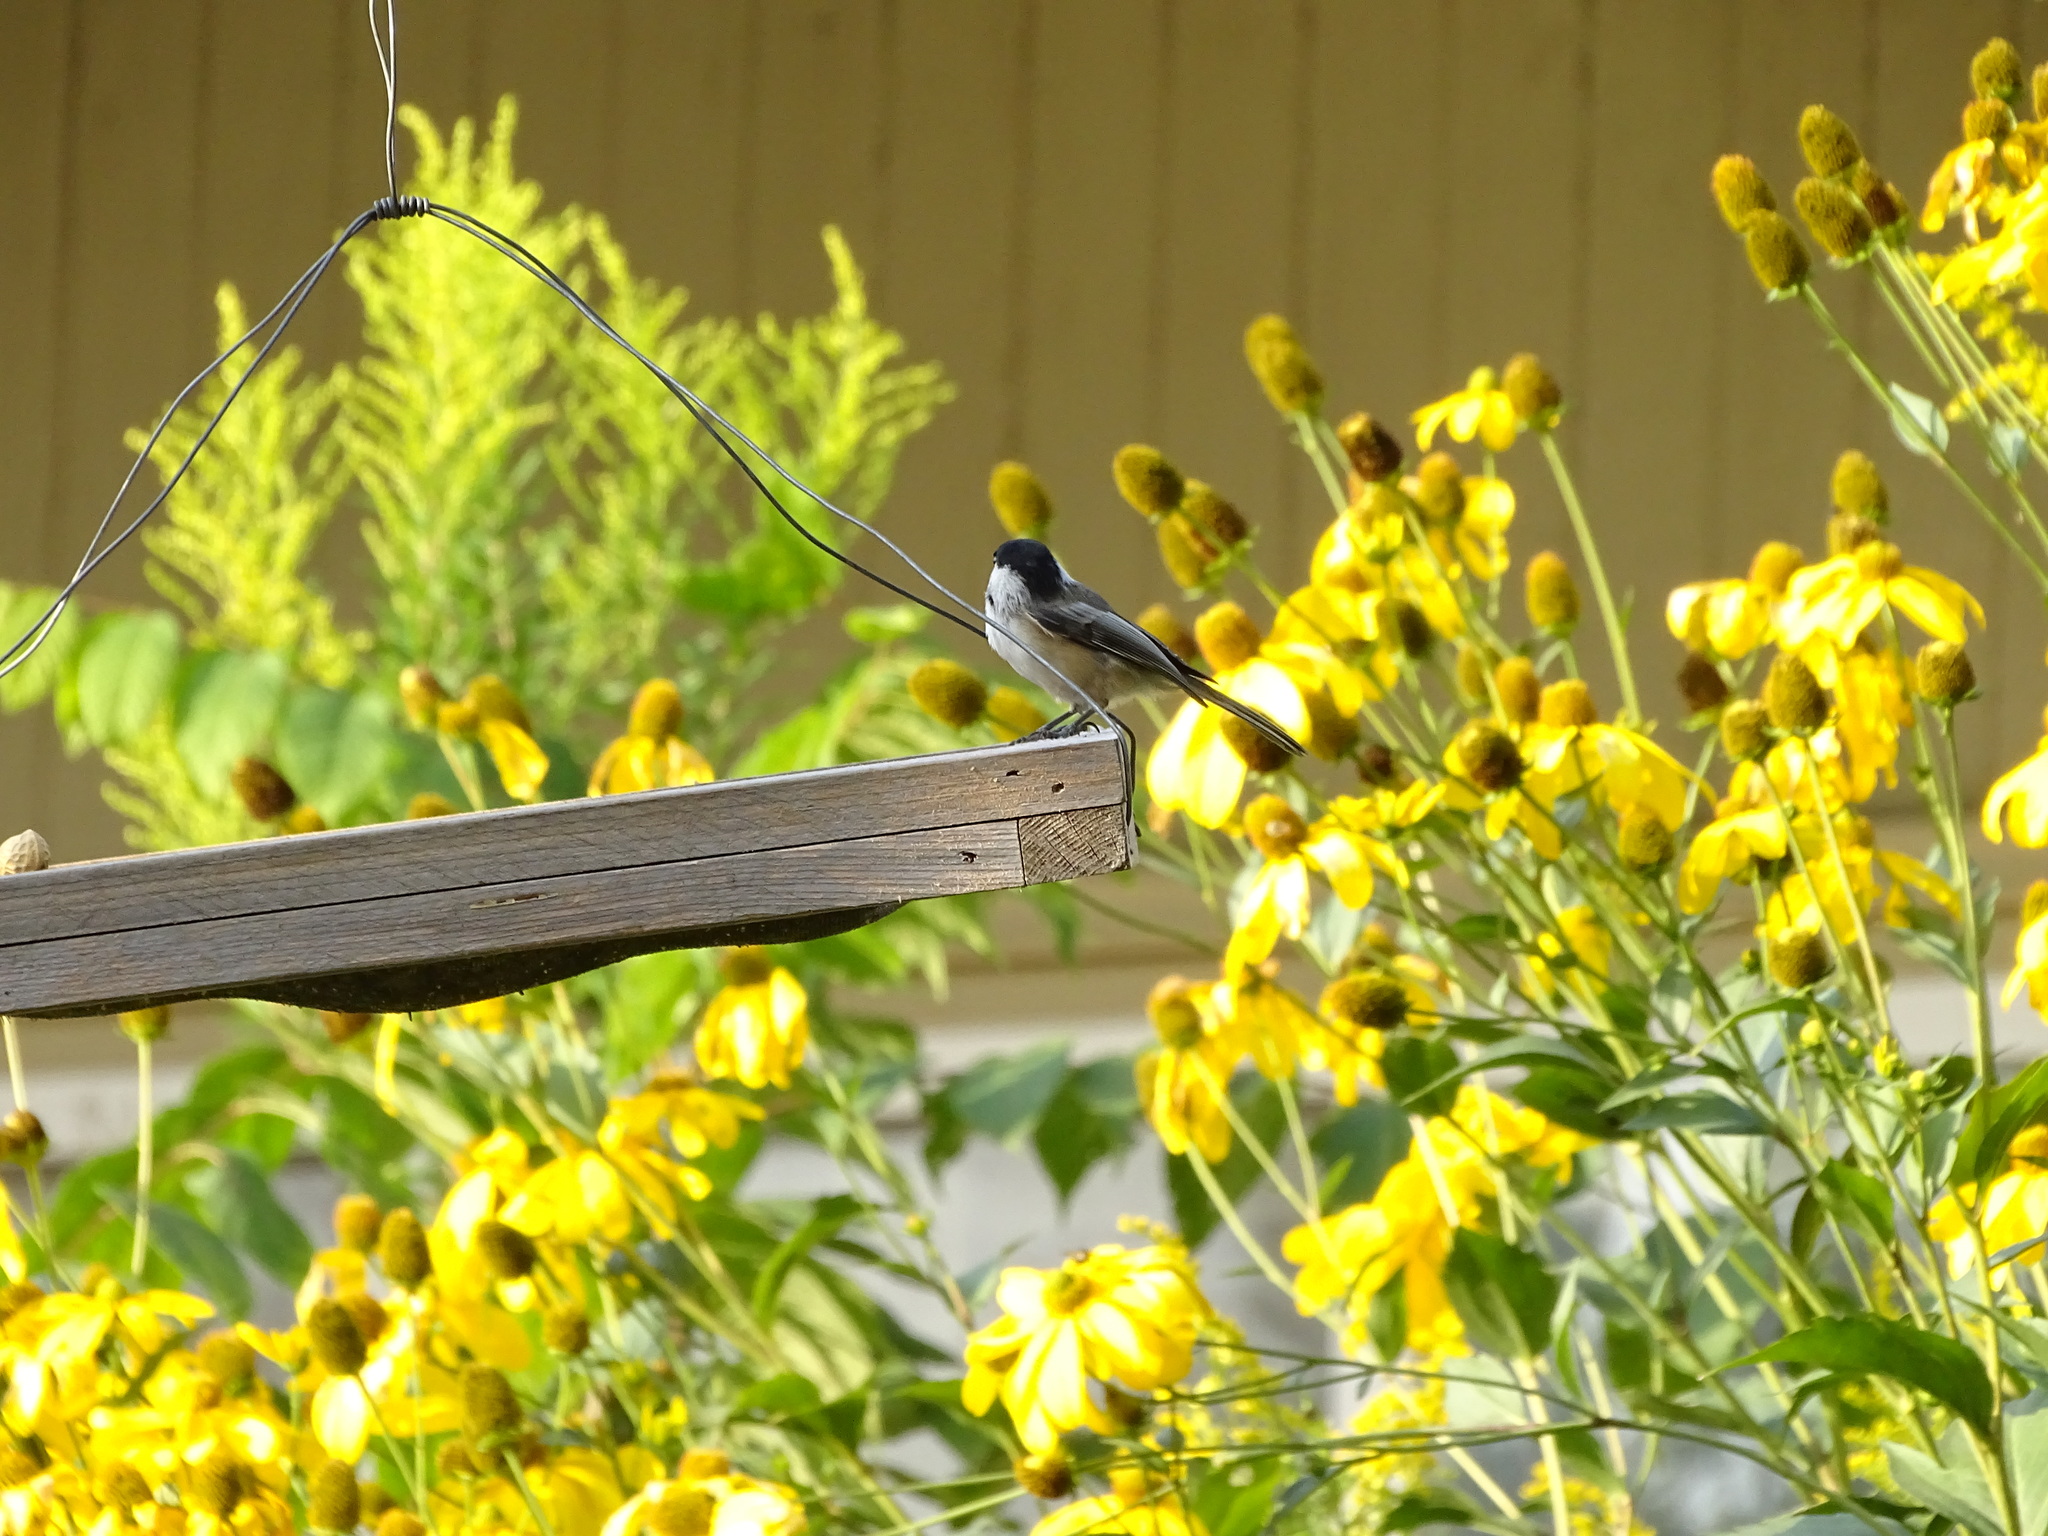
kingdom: Animalia
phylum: Chordata
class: Aves
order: Passeriformes
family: Paridae
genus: Poecile
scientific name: Poecile atricapillus
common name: Black-capped chickadee
